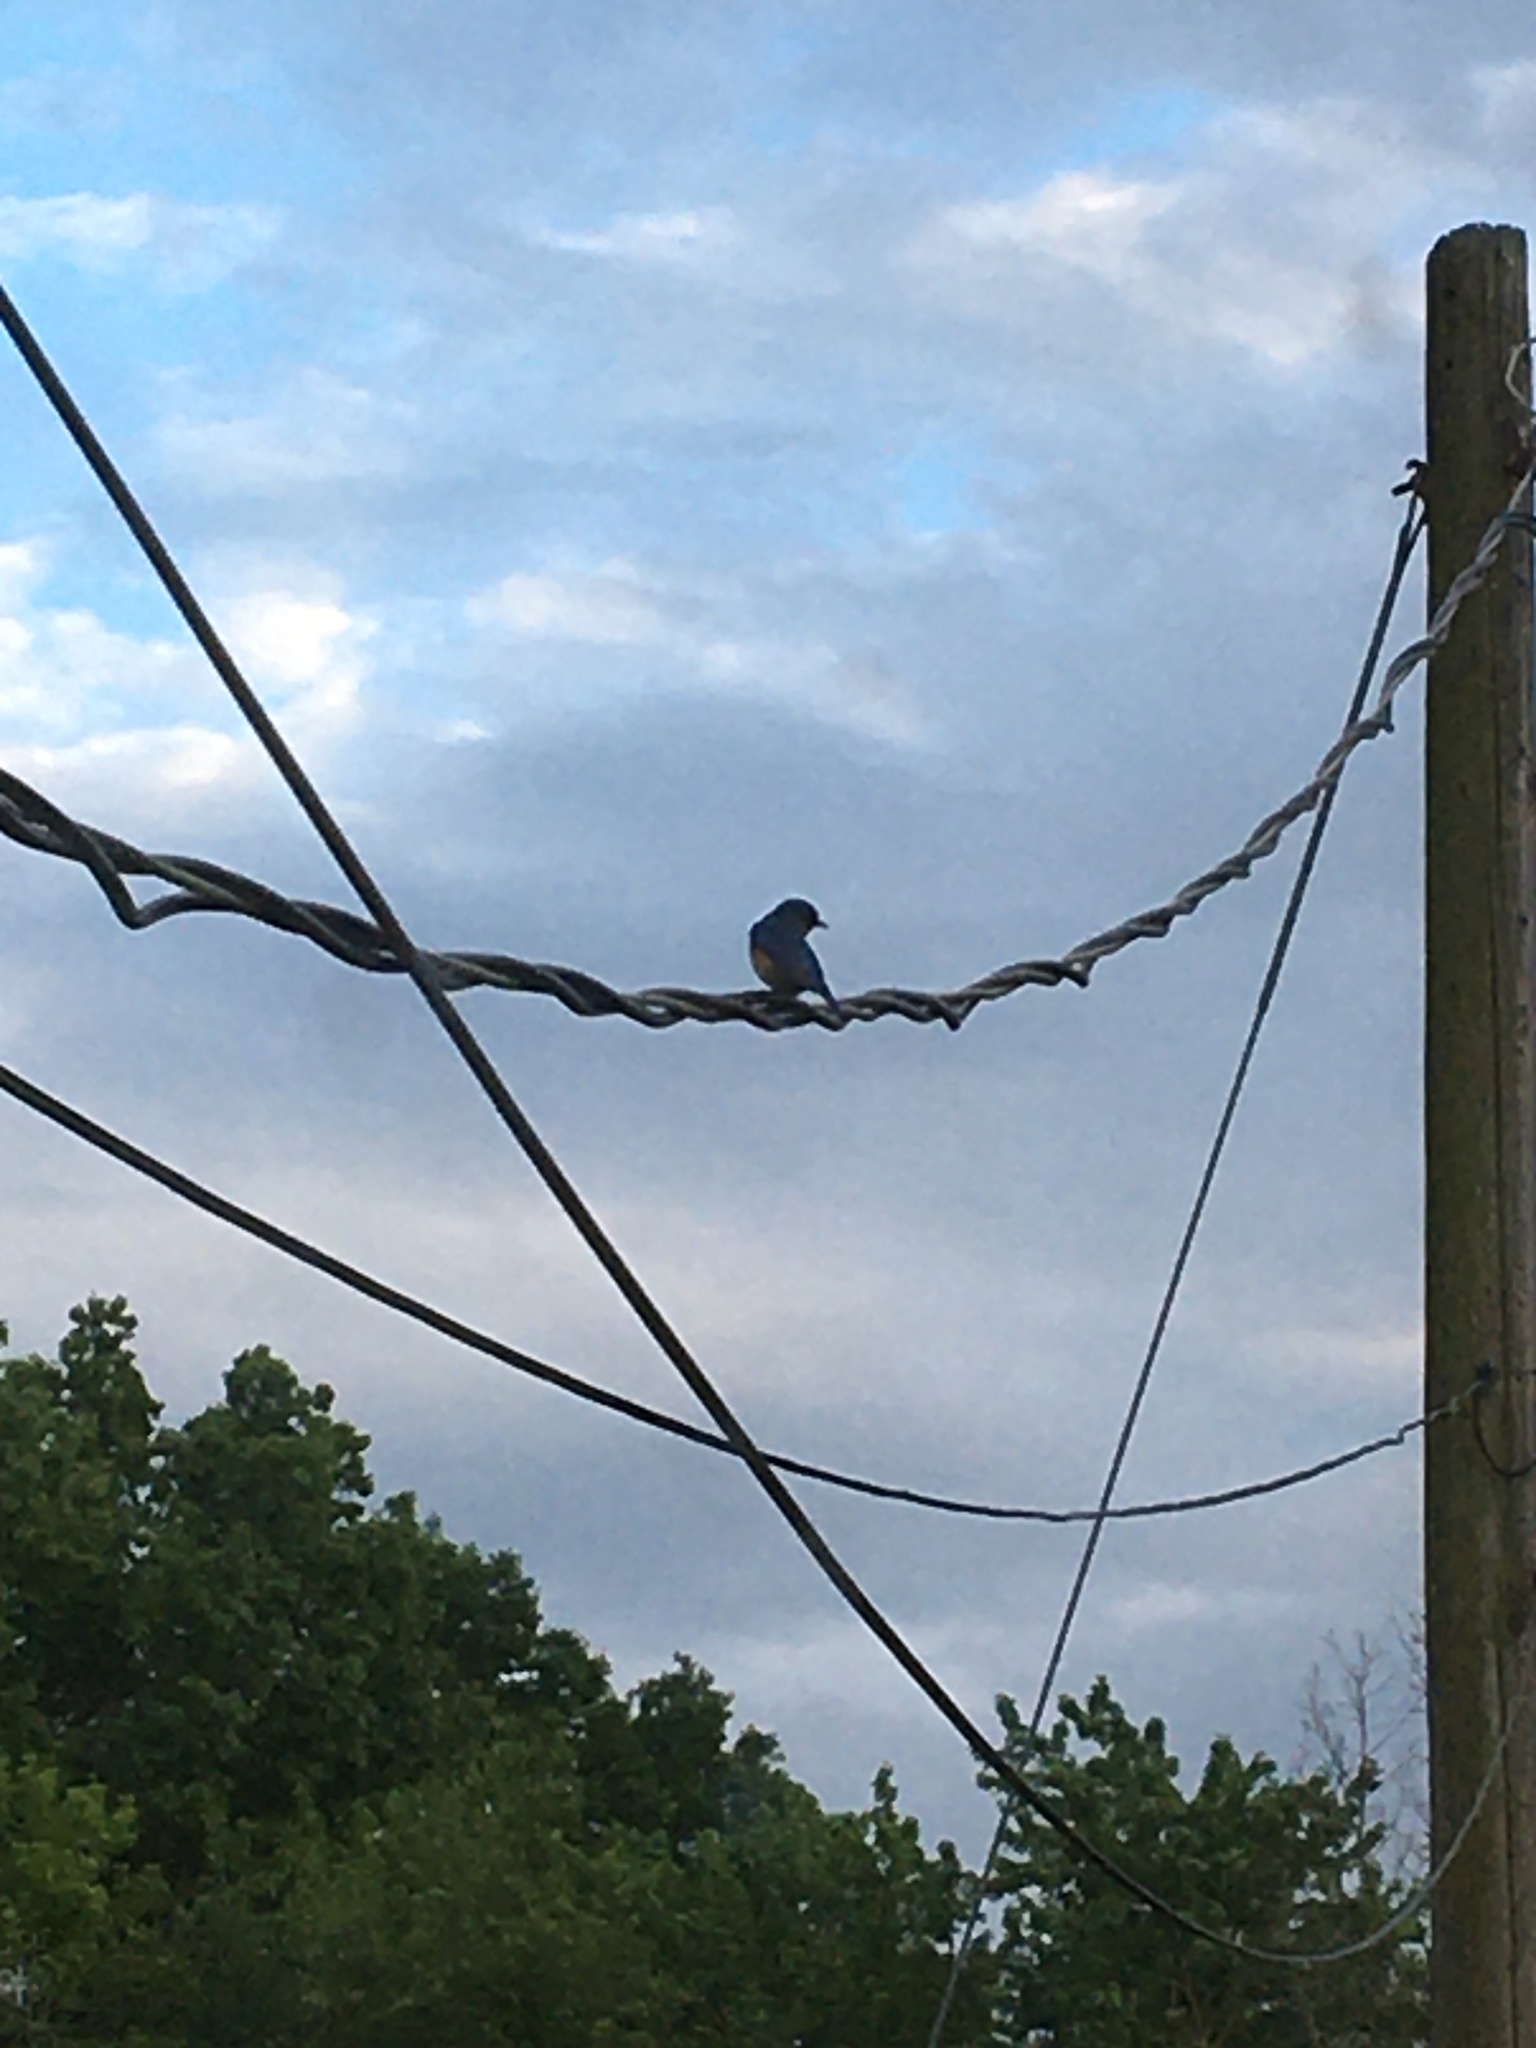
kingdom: Animalia
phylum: Chordata
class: Aves
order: Passeriformes
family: Turdidae
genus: Sialia
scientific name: Sialia sialis
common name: Eastern bluebird
